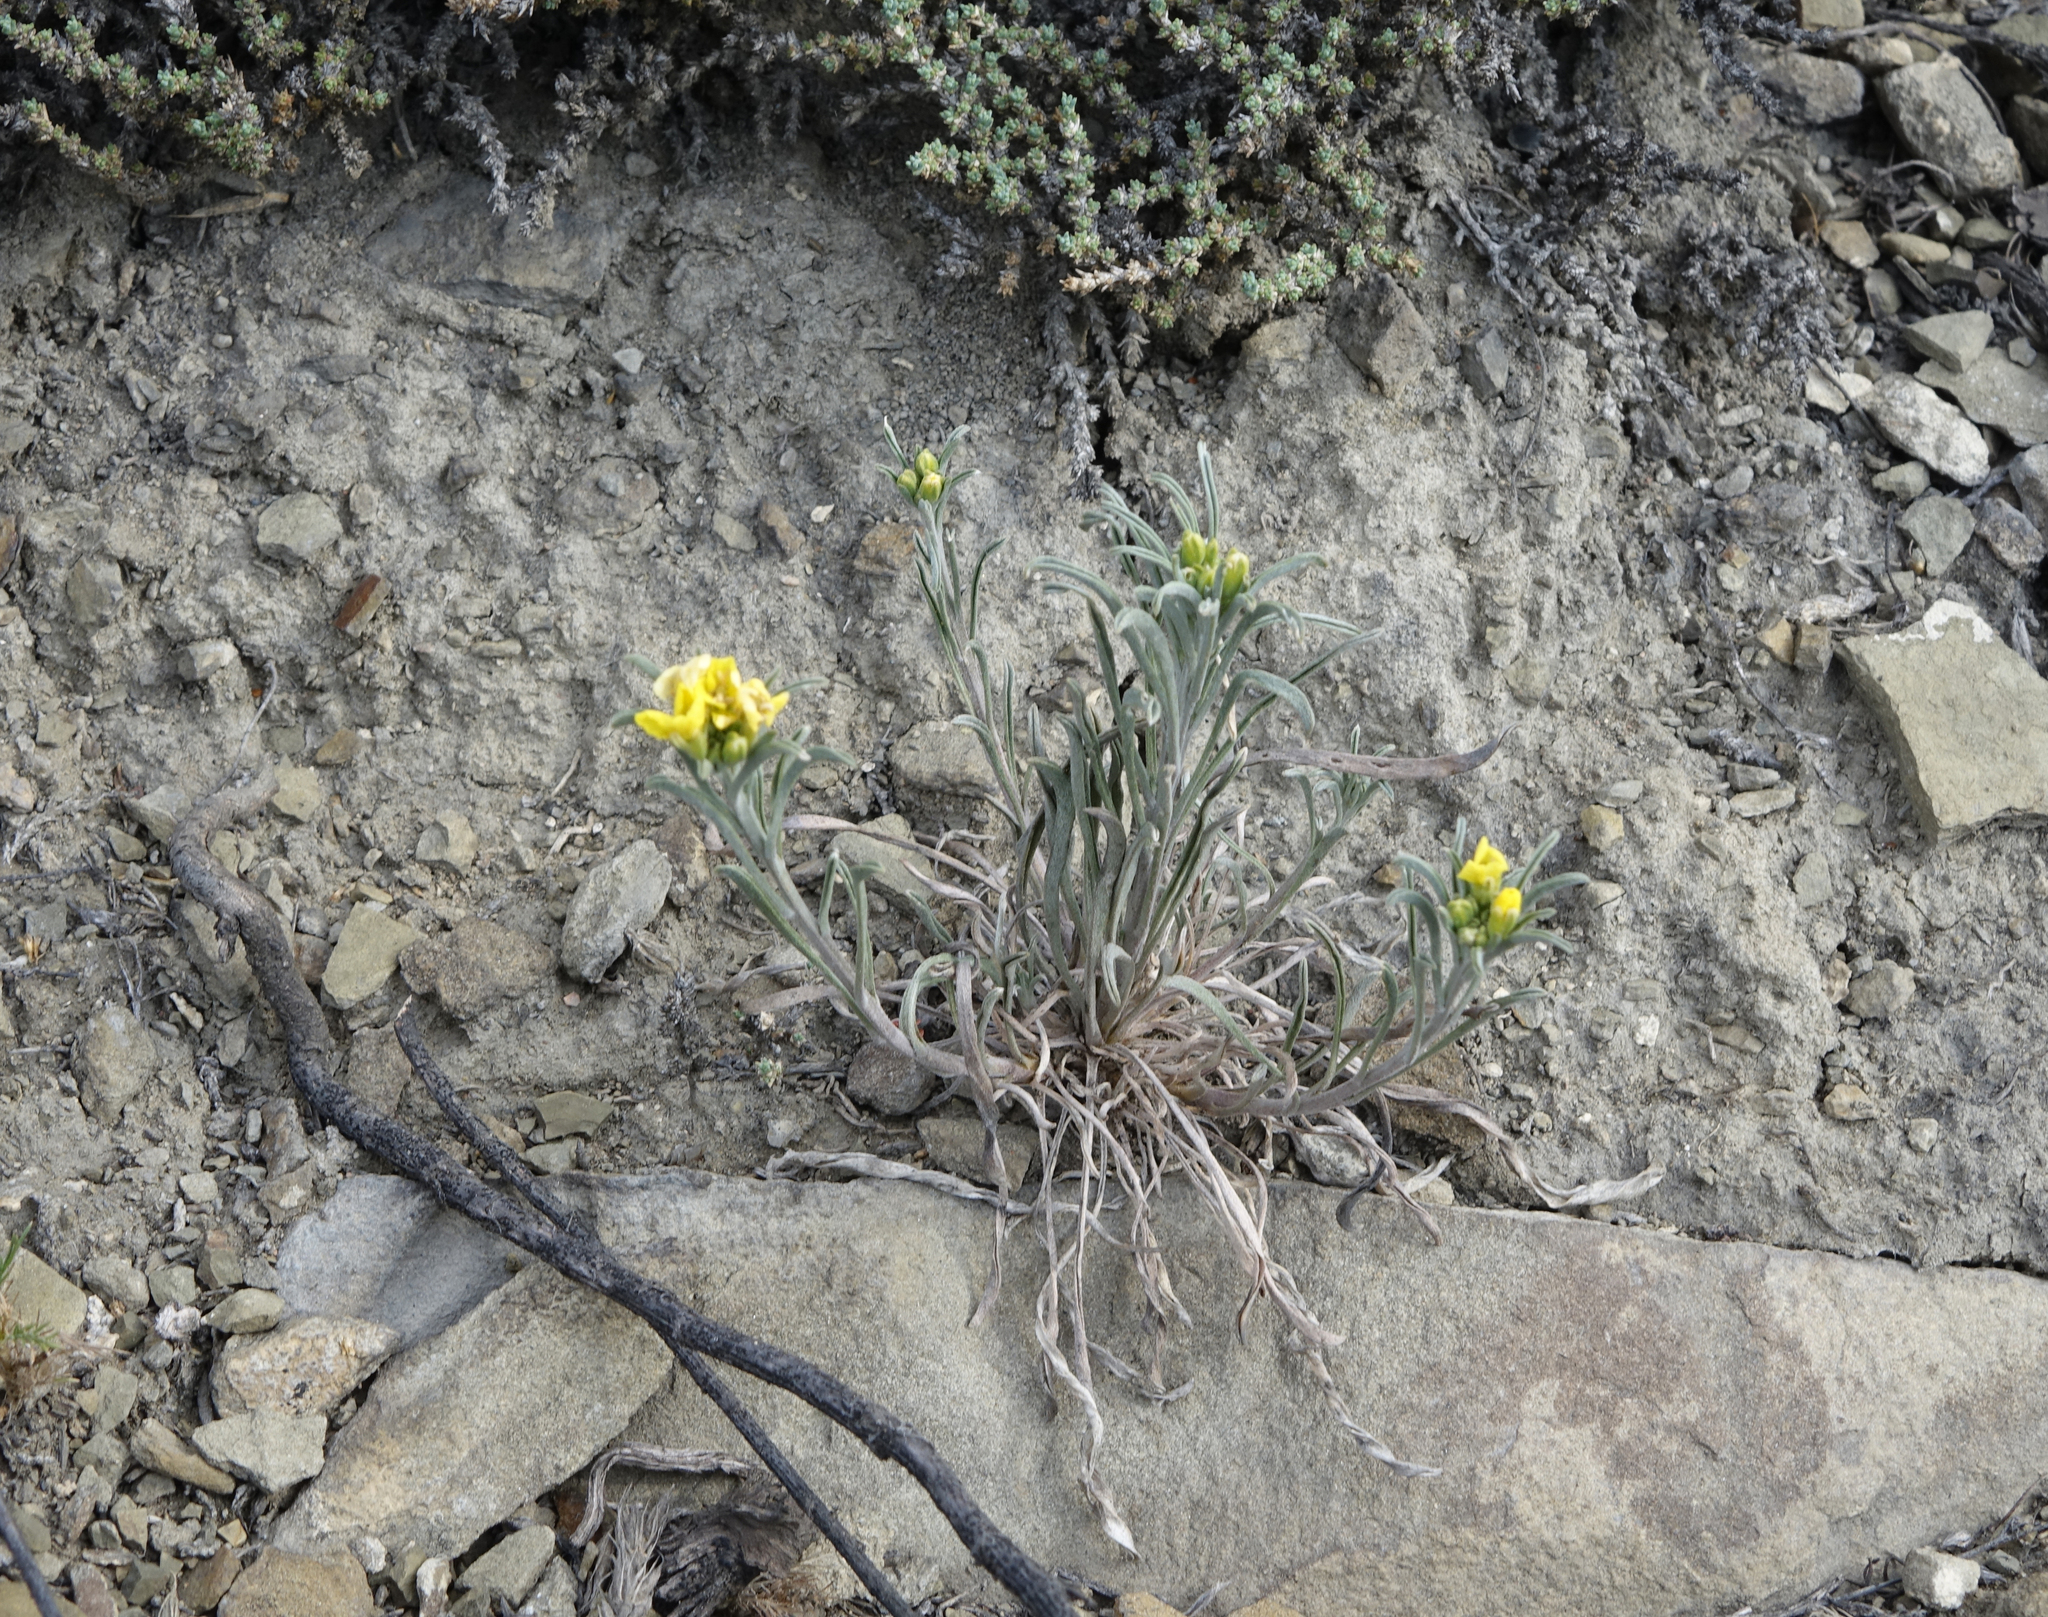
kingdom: Plantae
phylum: Tracheophyta
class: Magnoliopsida
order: Brassicales
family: Brassicaceae
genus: Erysimum
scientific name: Erysimum flavum
